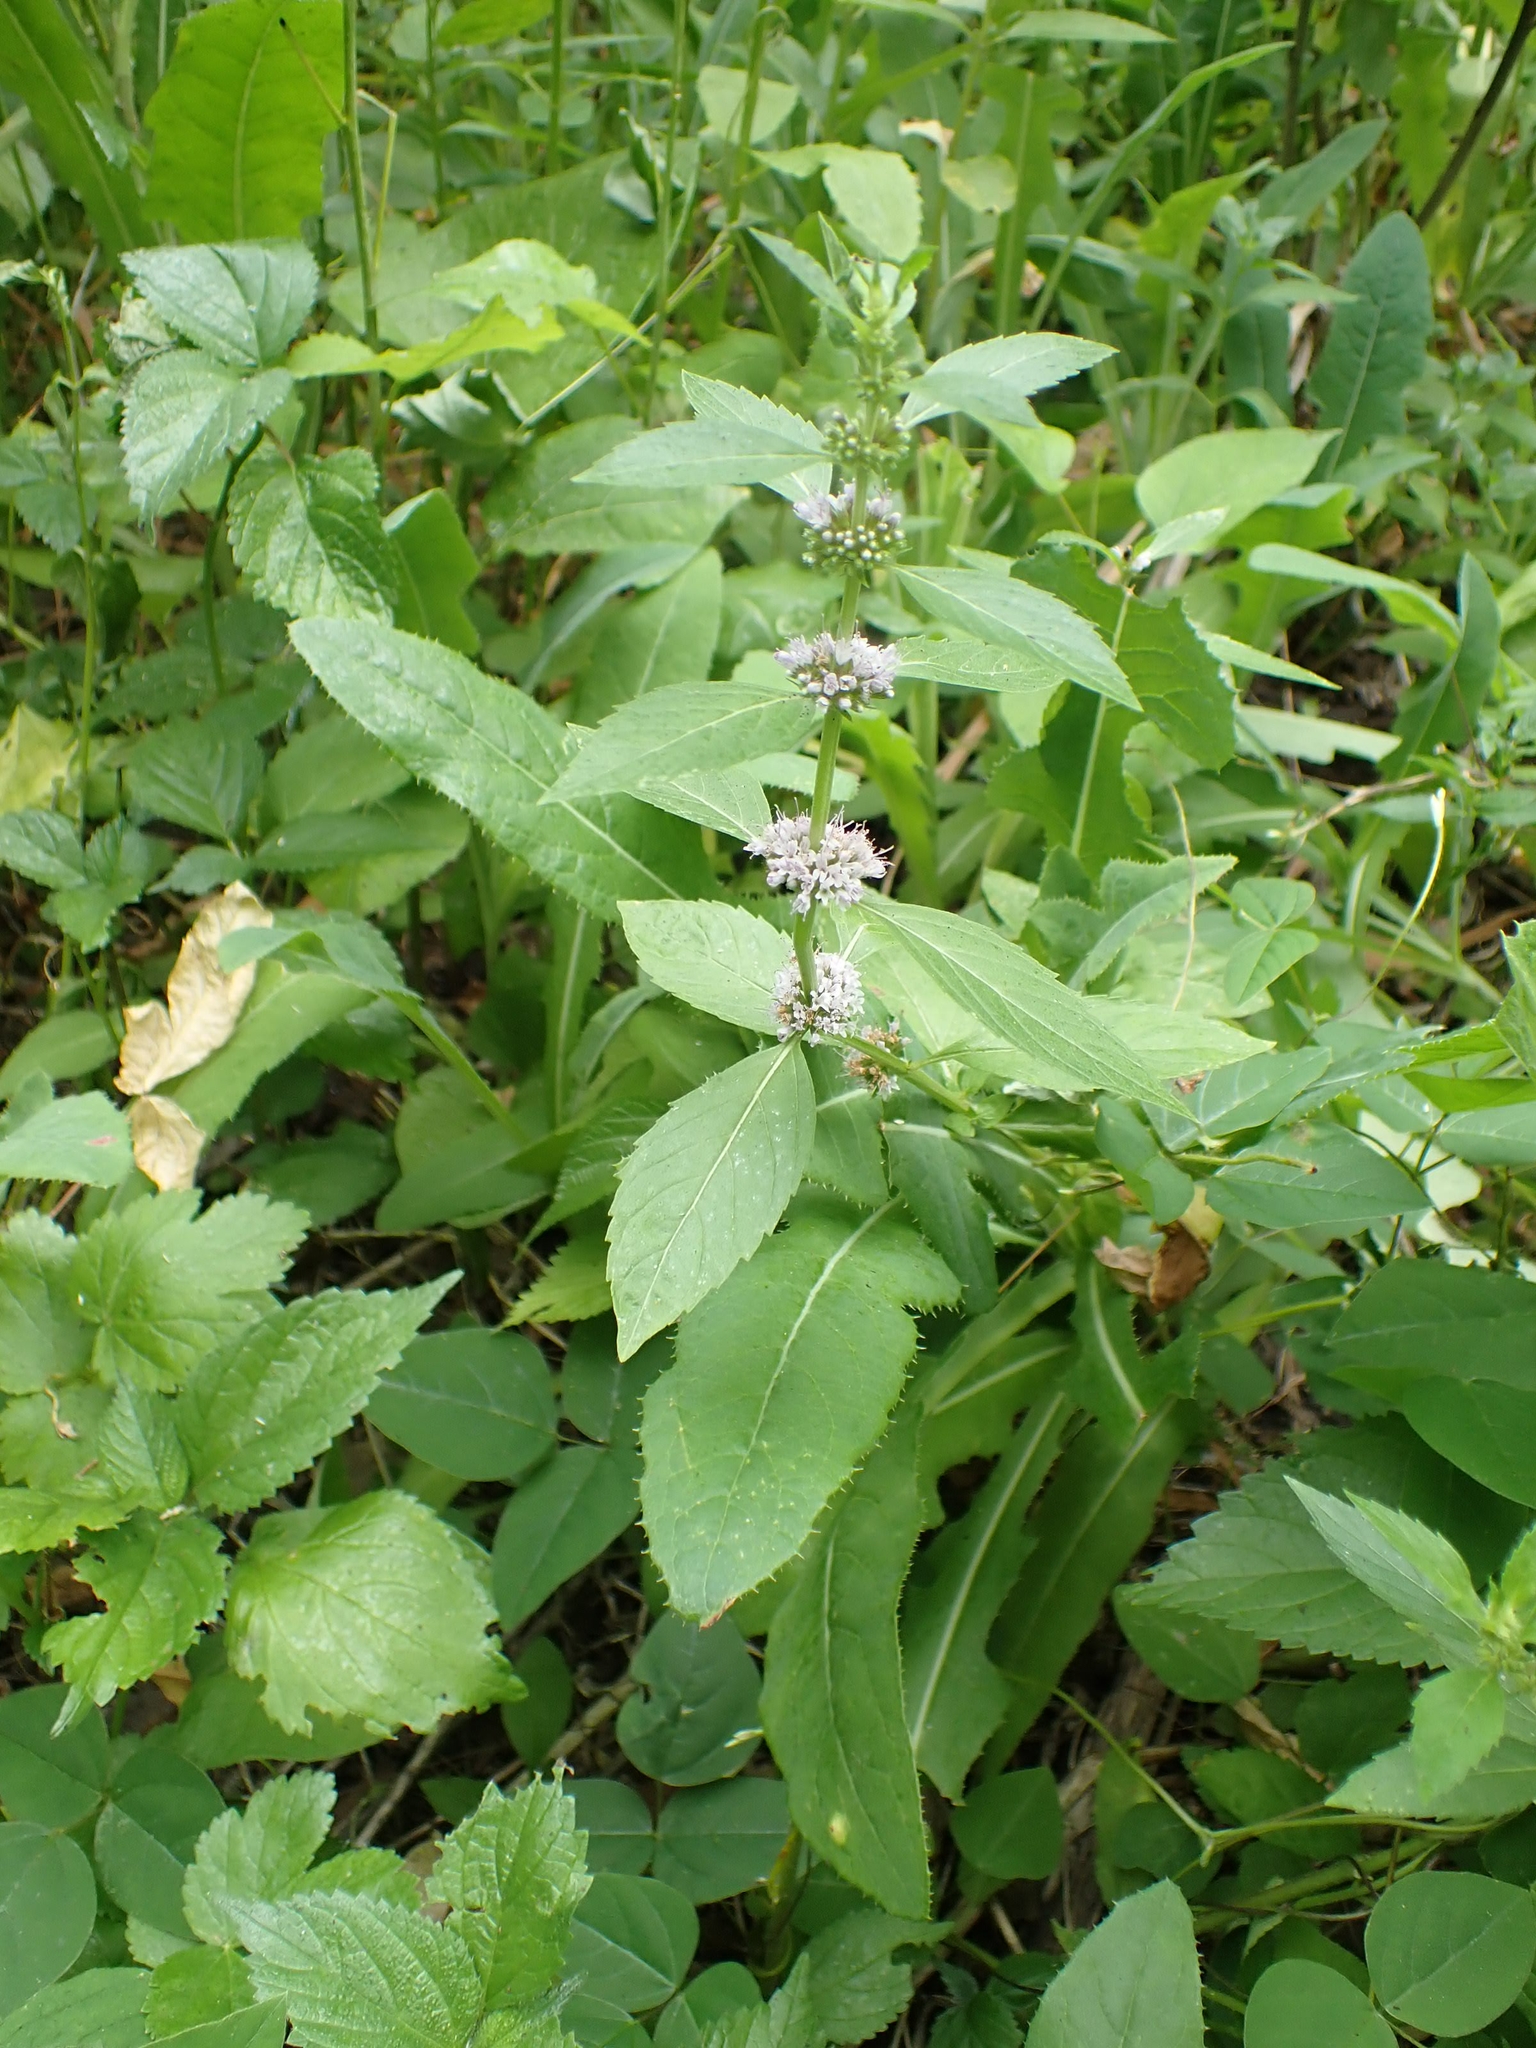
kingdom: Plantae
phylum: Tracheophyta
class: Magnoliopsida
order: Lamiales
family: Lamiaceae
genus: Mentha
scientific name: Mentha canadensis
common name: American corn mint
